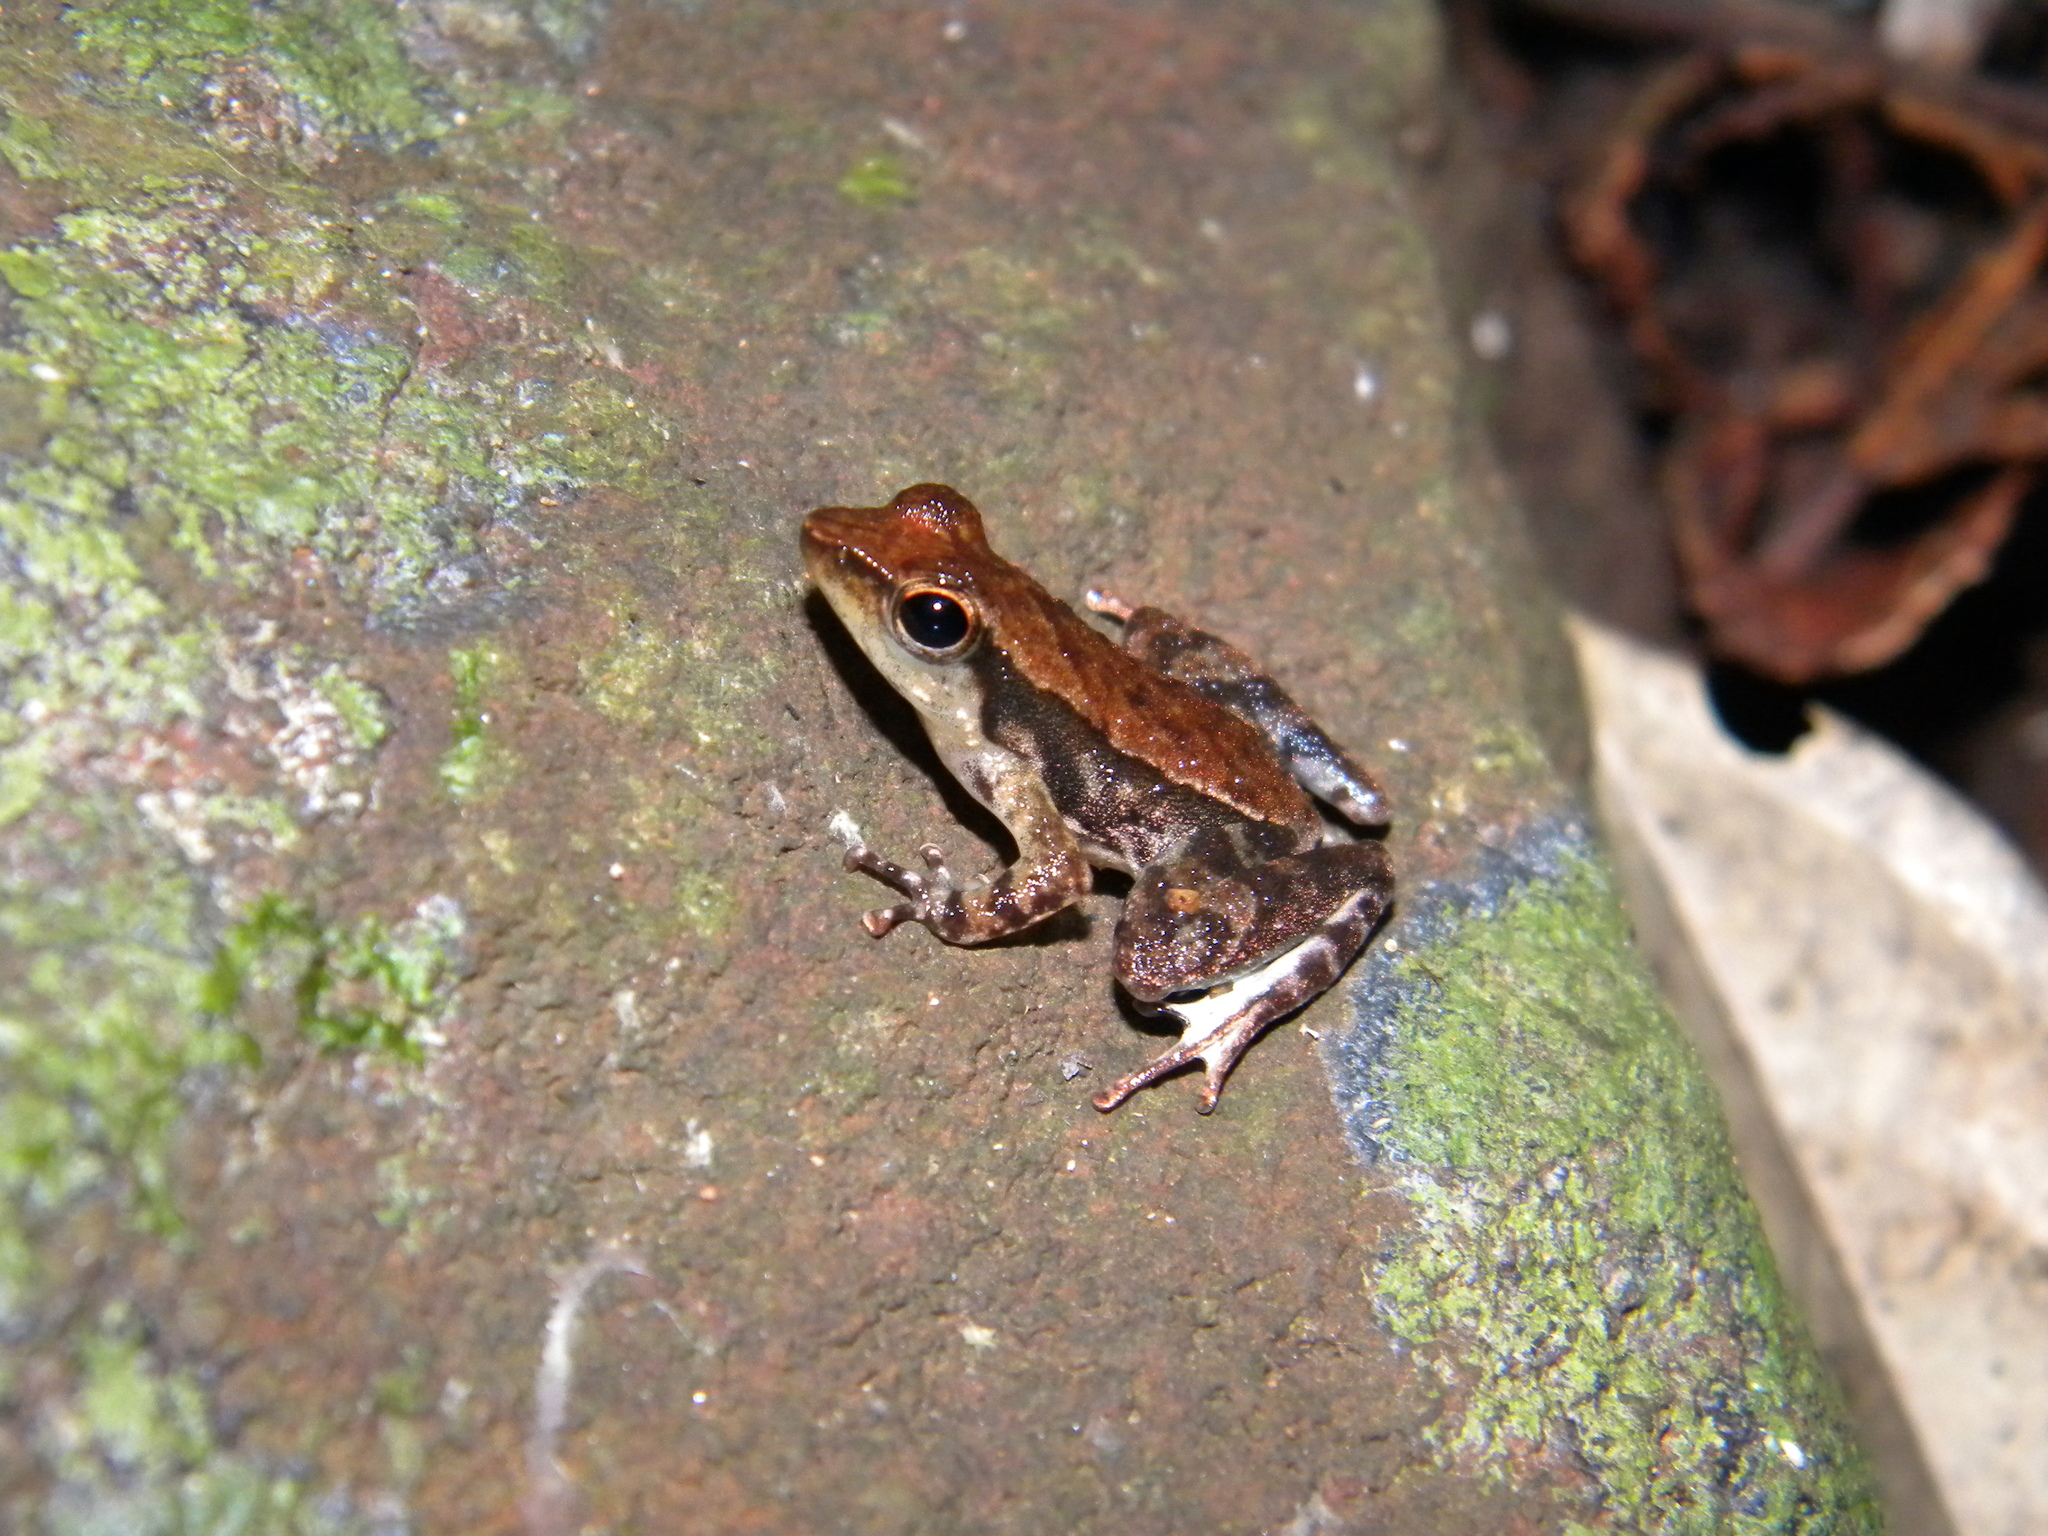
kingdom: Animalia
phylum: Chordata
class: Amphibia
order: Anura
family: Micrixalidae
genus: Micrixalus
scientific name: Micrixalus herrei
